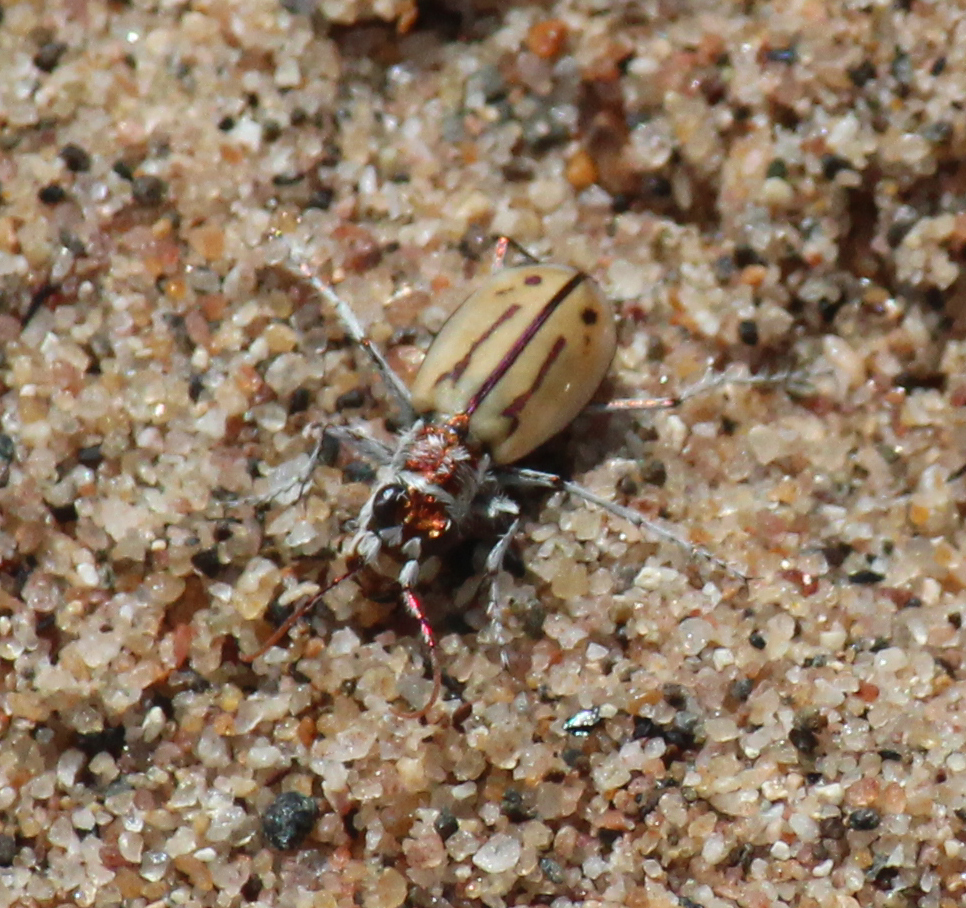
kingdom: Animalia
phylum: Arthropoda
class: Insecta
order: Coleoptera
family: Carabidae
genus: Lophyra
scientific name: Lophyra barbifrons
